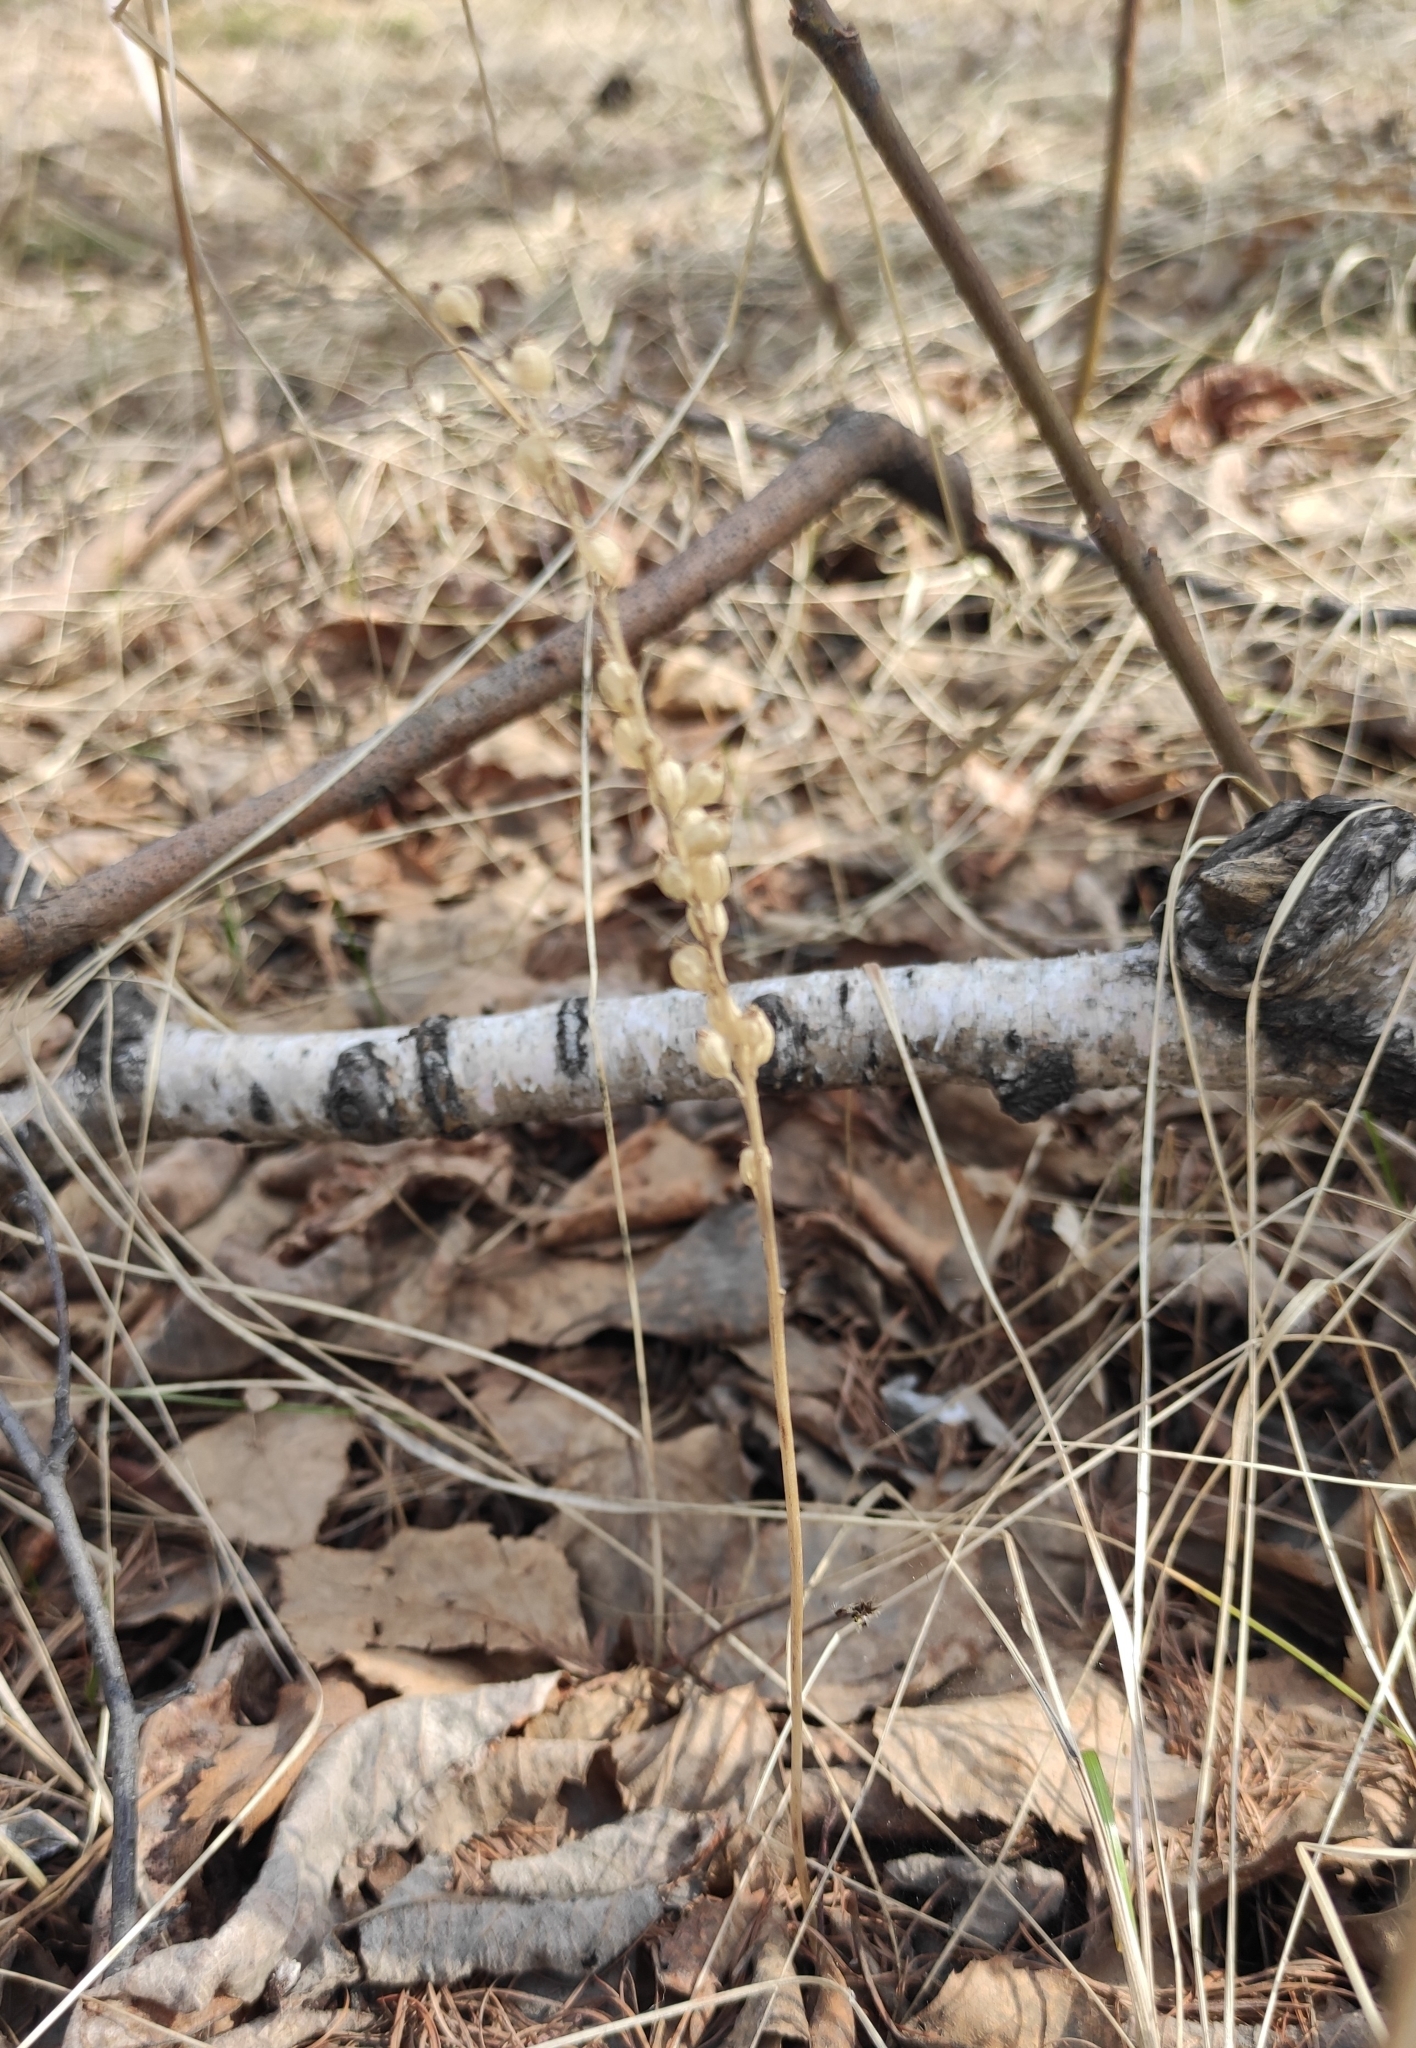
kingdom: Plantae
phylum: Tracheophyta
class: Liliopsida
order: Asparagales
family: Orchidaceae
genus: Malaxis
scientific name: Malaxis monophyllos
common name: White adder's-mouth
